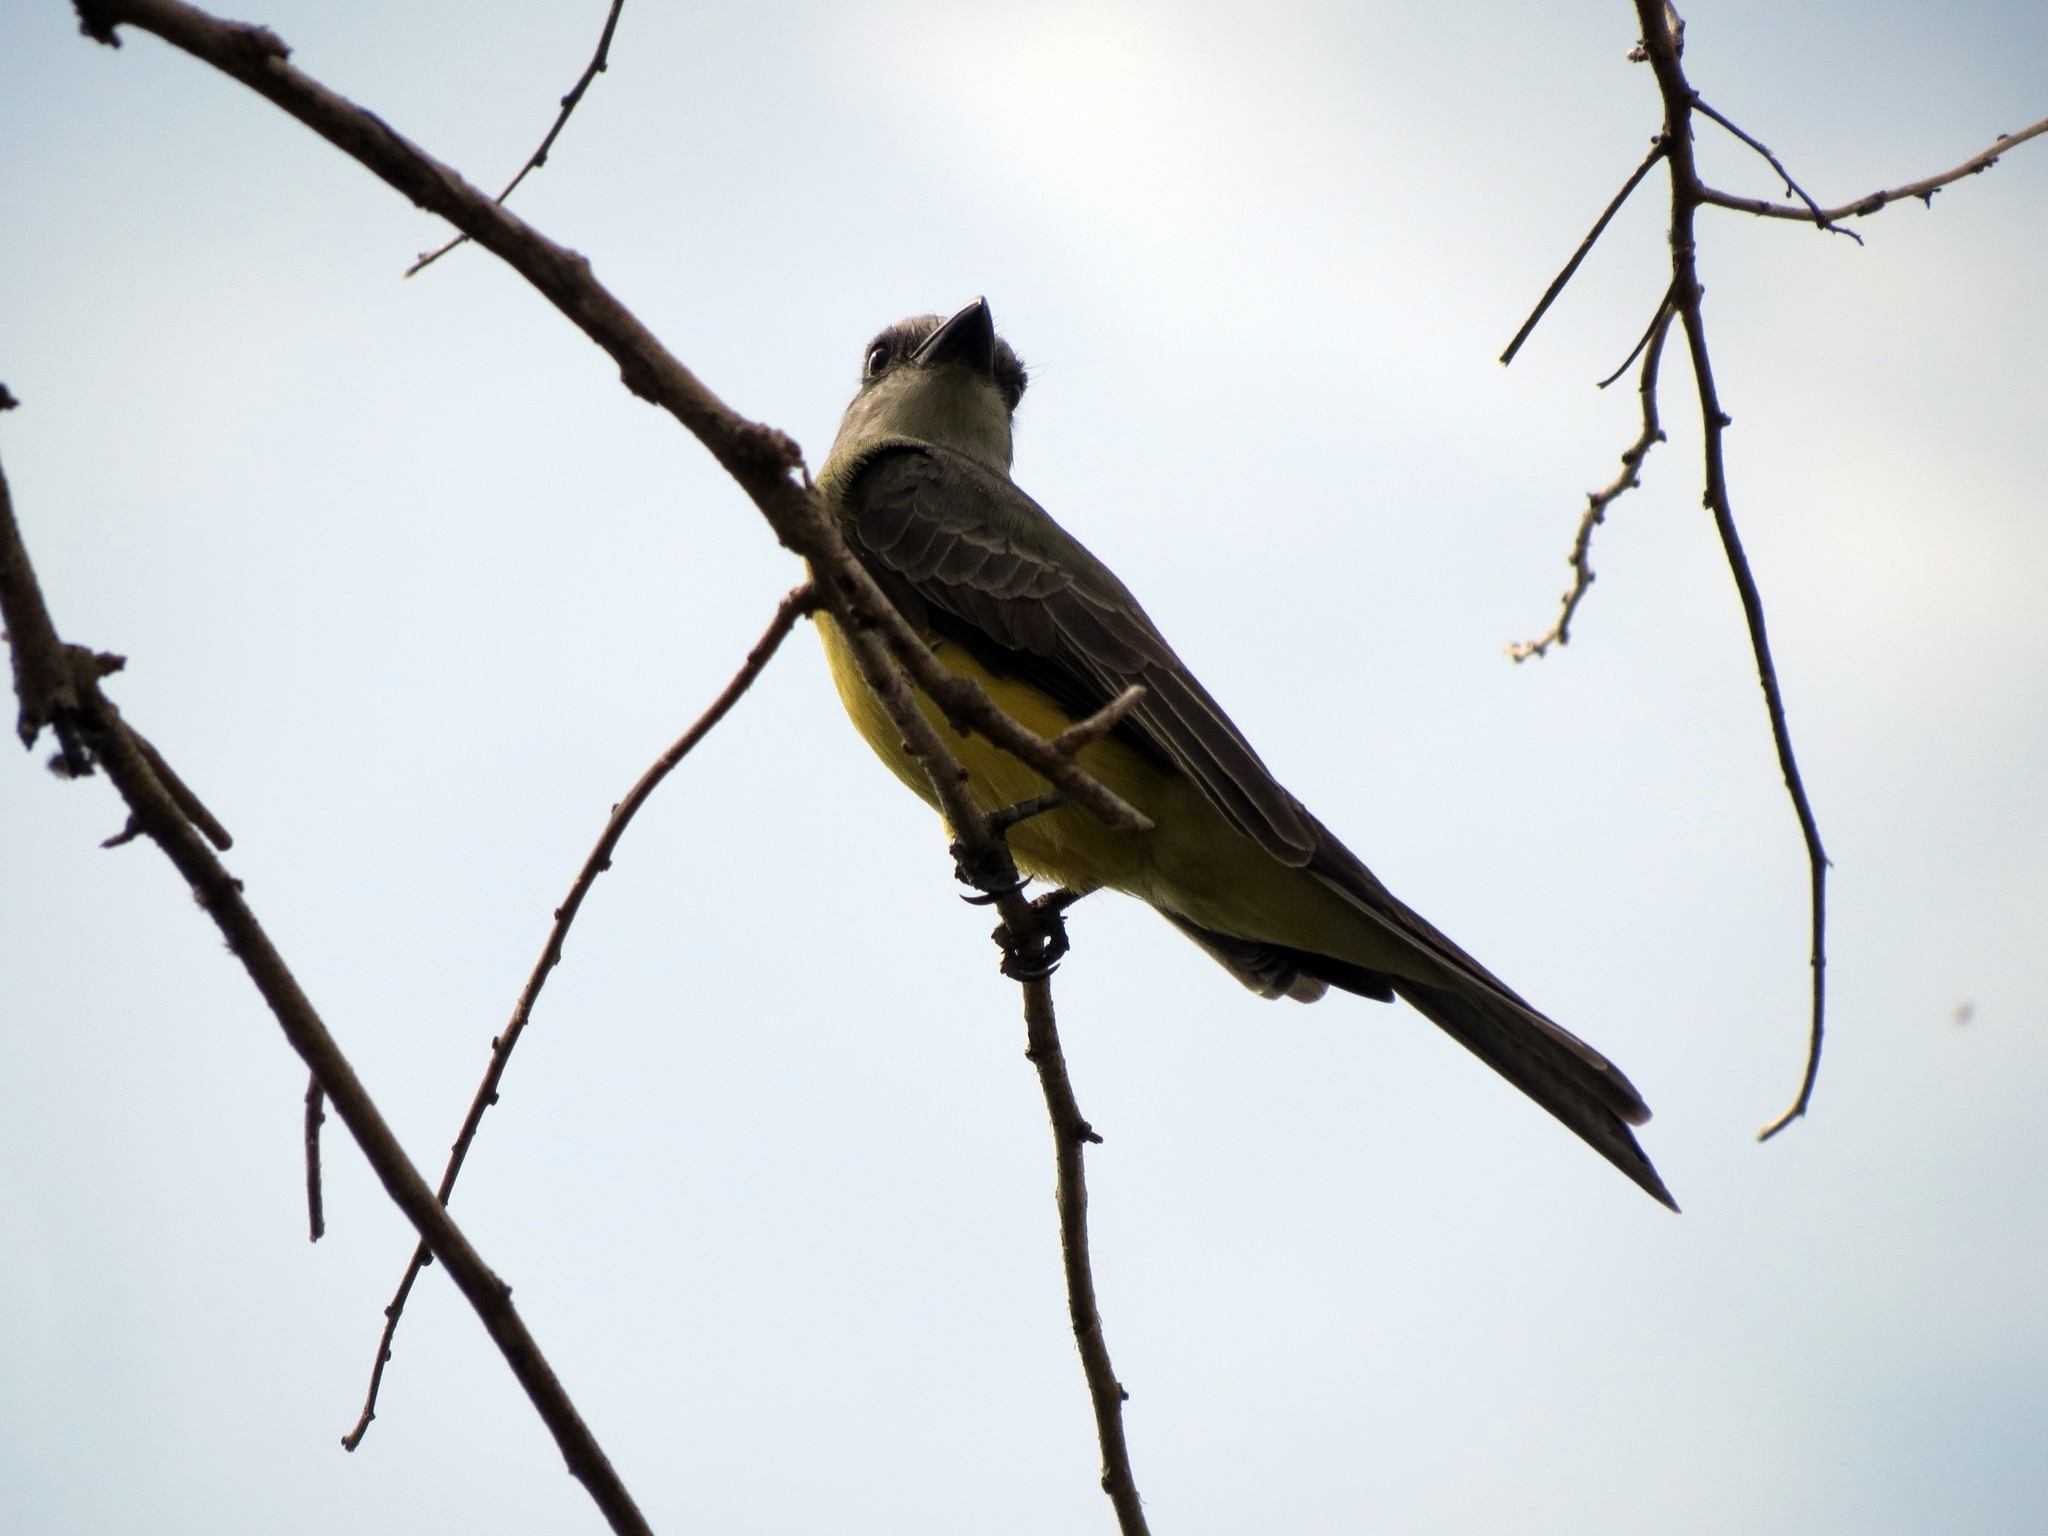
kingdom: Animalia
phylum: Chordata
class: Aves
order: Passeriformes
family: Tyrannidae
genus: Tyrannus
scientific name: Tyrannus melancholicus
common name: Tropical kingbird
